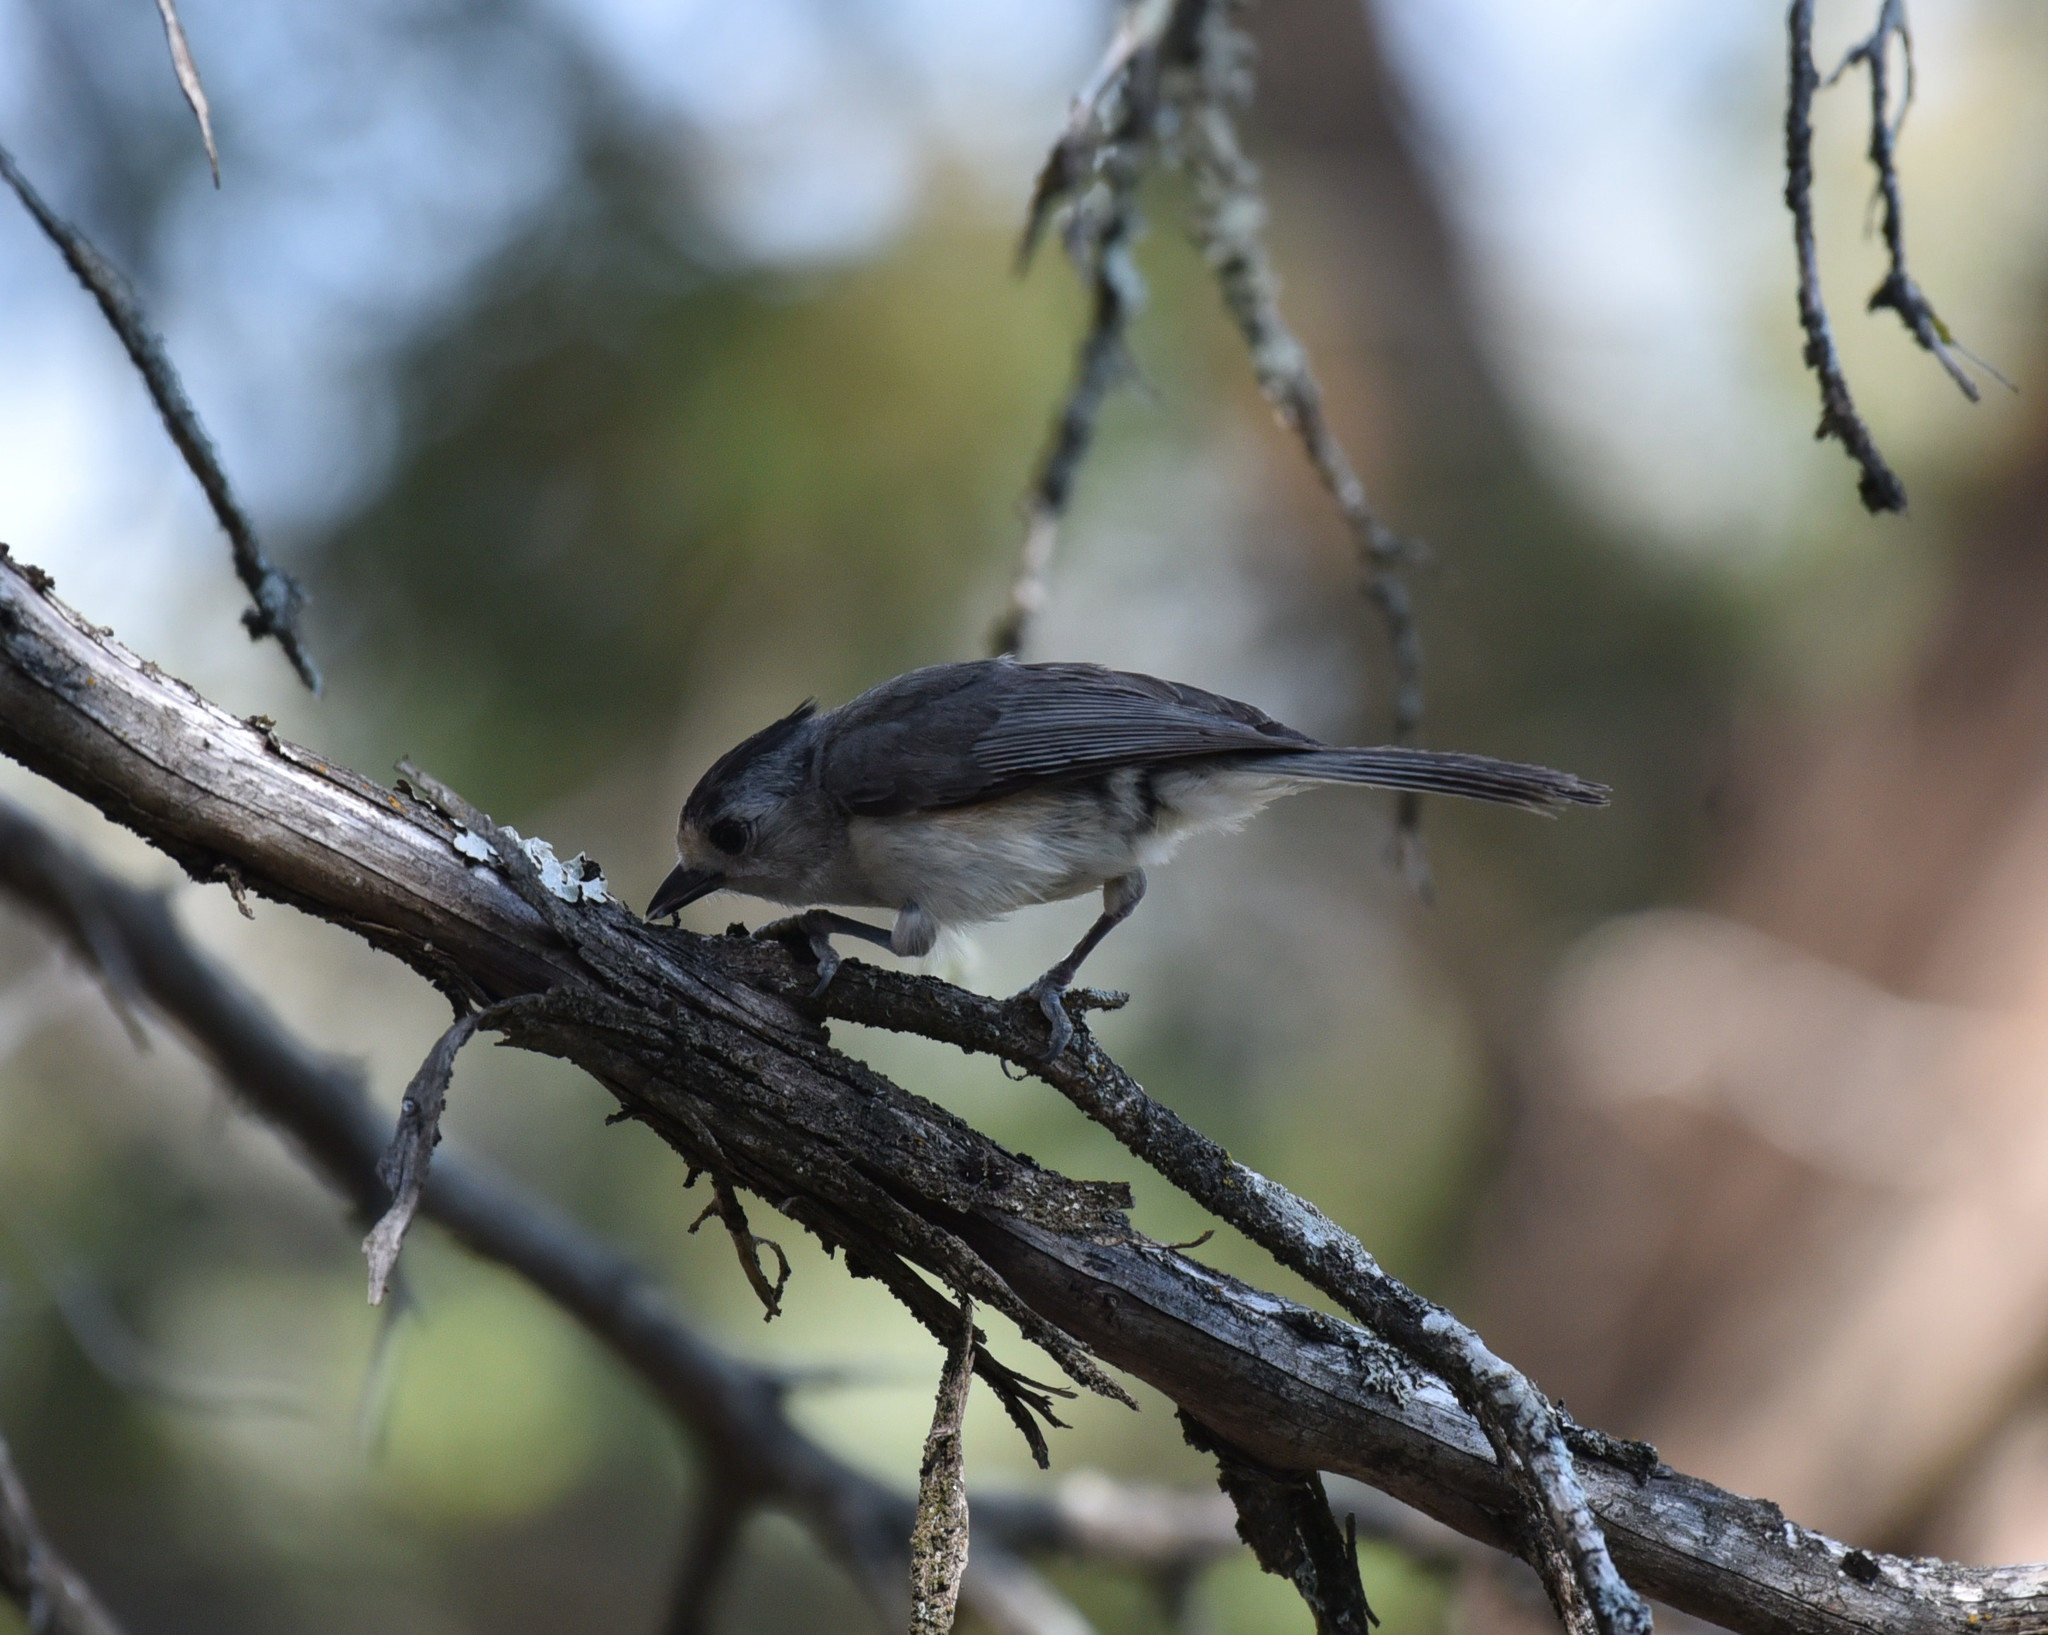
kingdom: Animalia
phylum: Chordata
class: Aves
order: Passeriformes
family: Paridae
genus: Baeolophus
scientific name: Baeolophus atricristatus
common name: Black-crested titmouse
